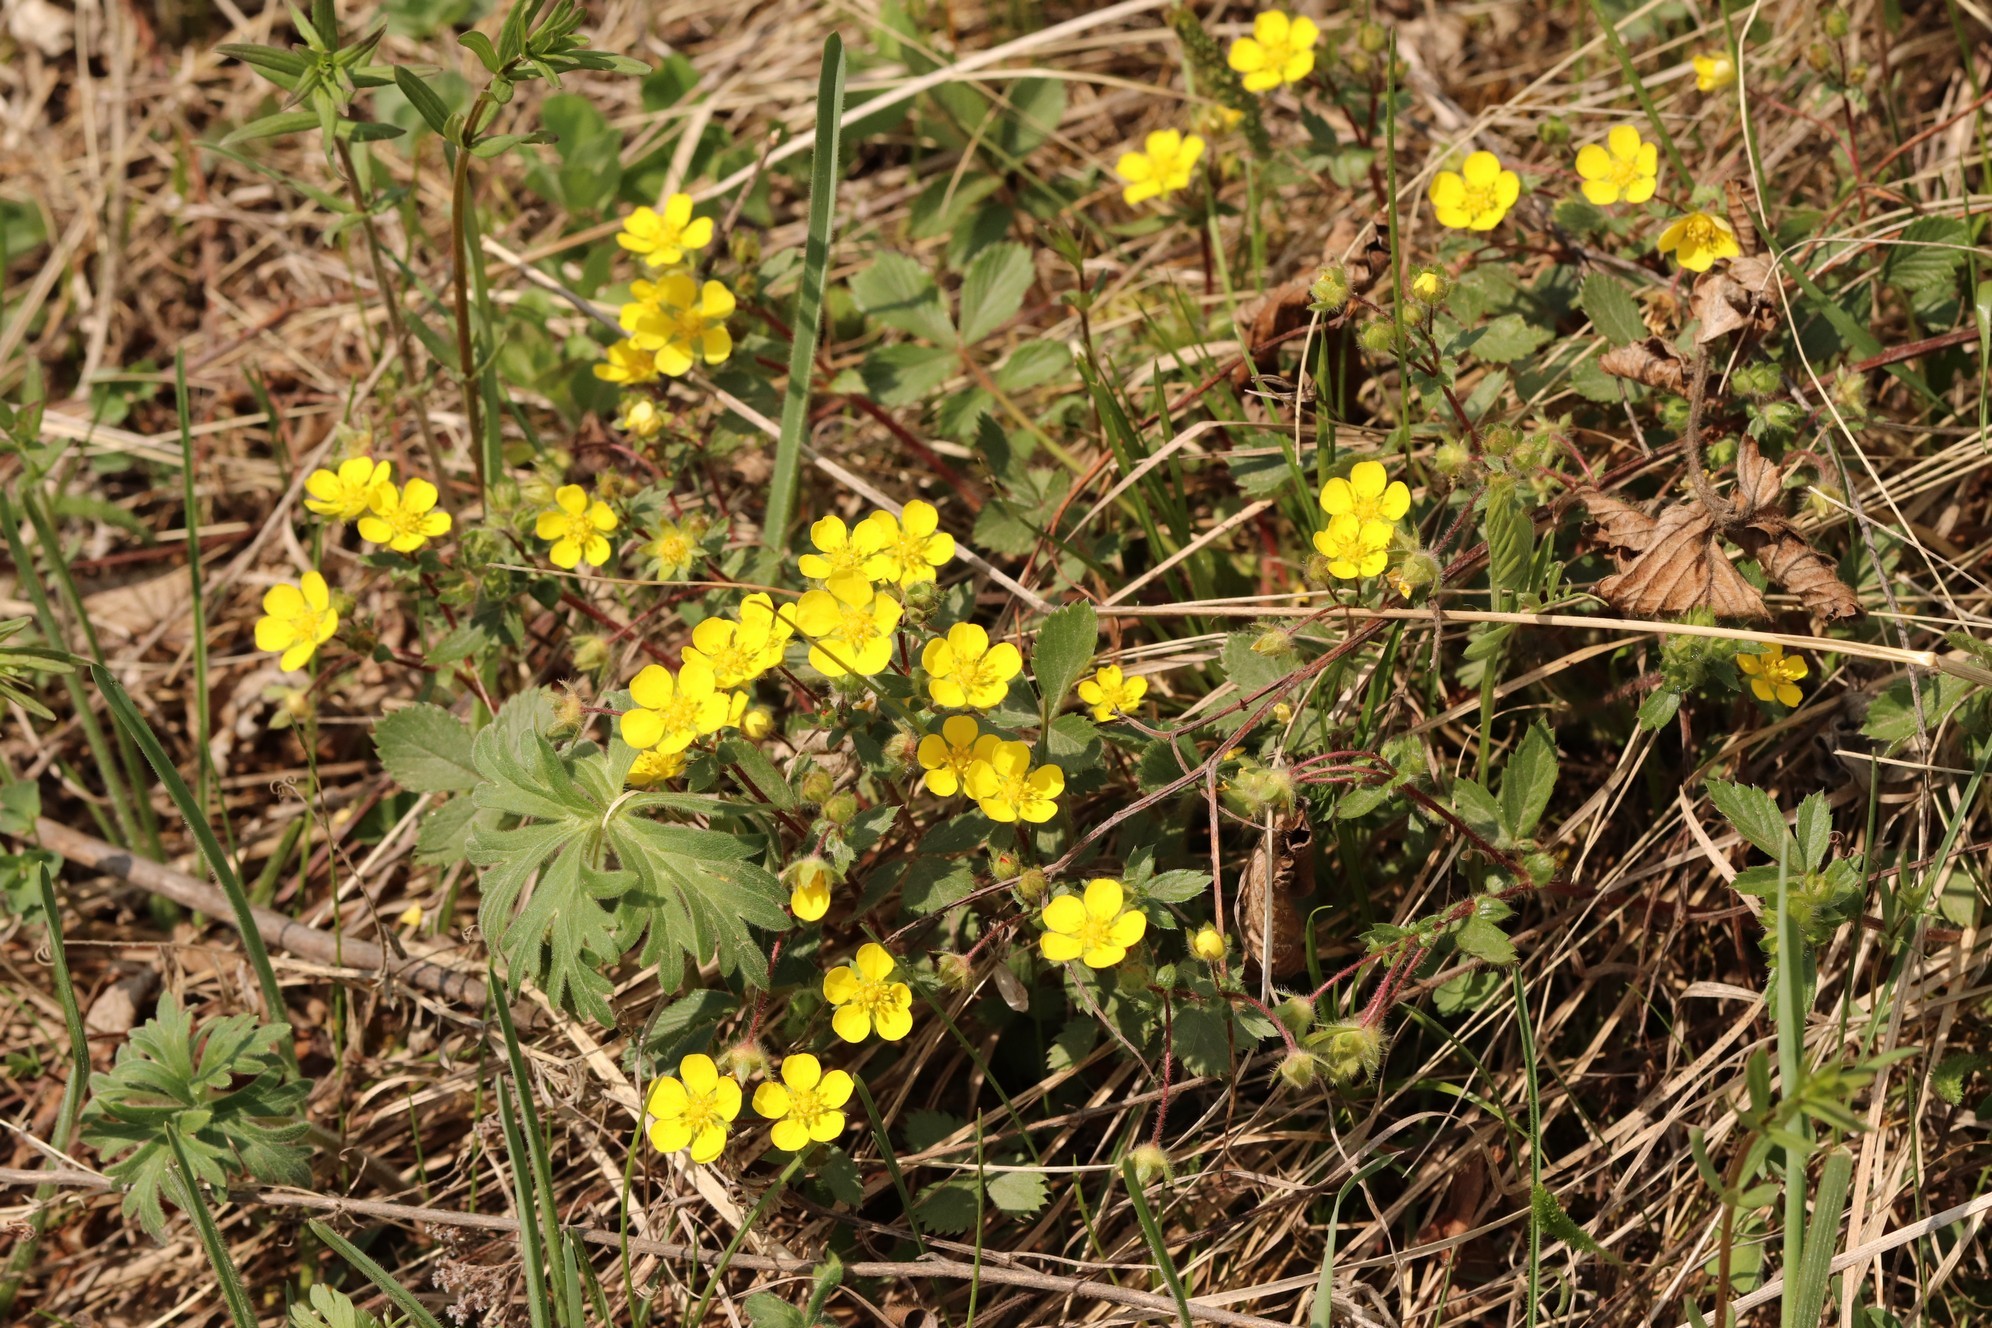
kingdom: Plantae
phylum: Tracheophyta
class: Magnoliopsida
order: Rosales
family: Rosaceae
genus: Potentilla
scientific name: Potentilla fragarioides
